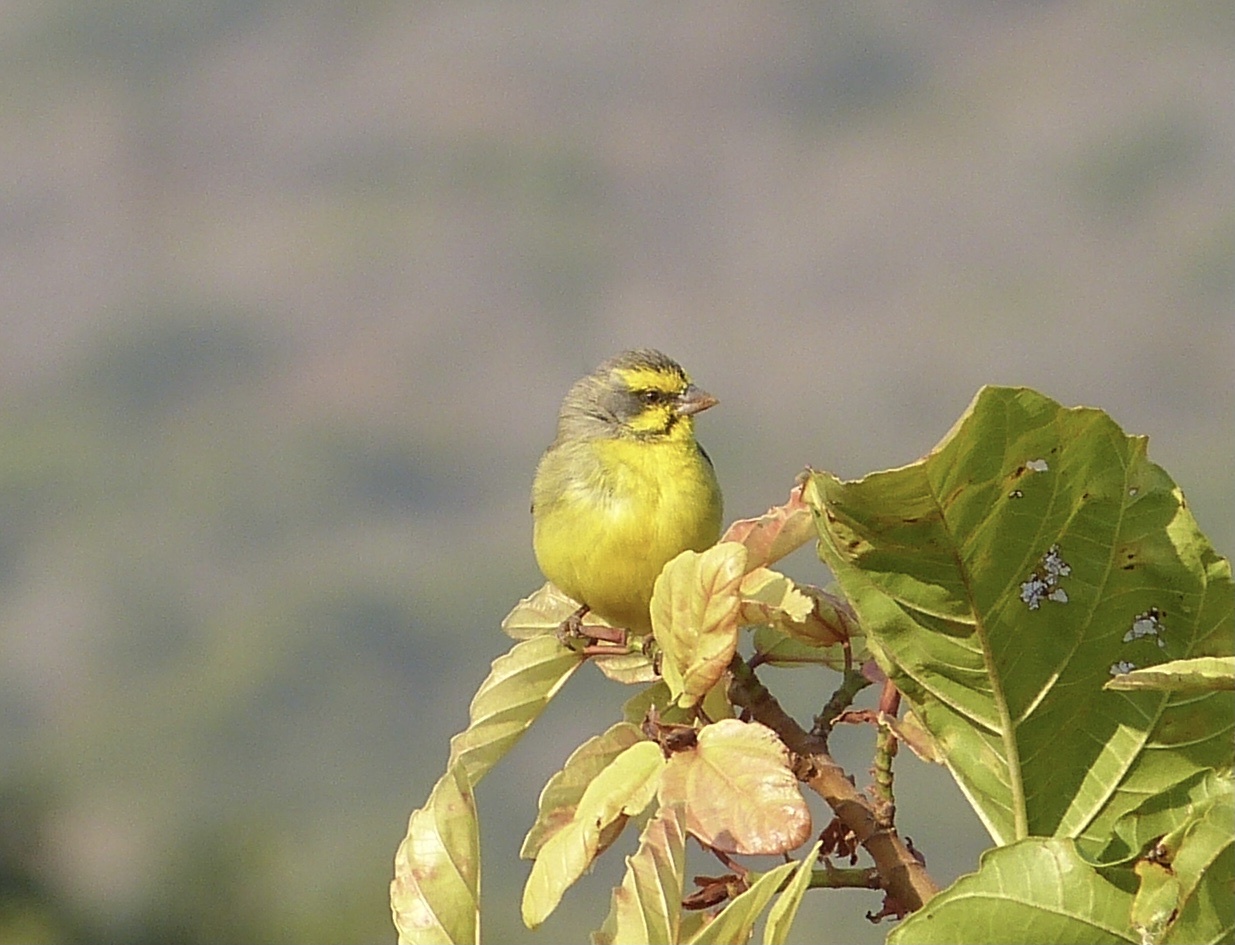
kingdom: Animalia
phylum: Chordata
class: Aves
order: Passeriformes
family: Fringillidae
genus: Crithagra
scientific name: Crithagra mozambica
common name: Yellow-fronted canary
